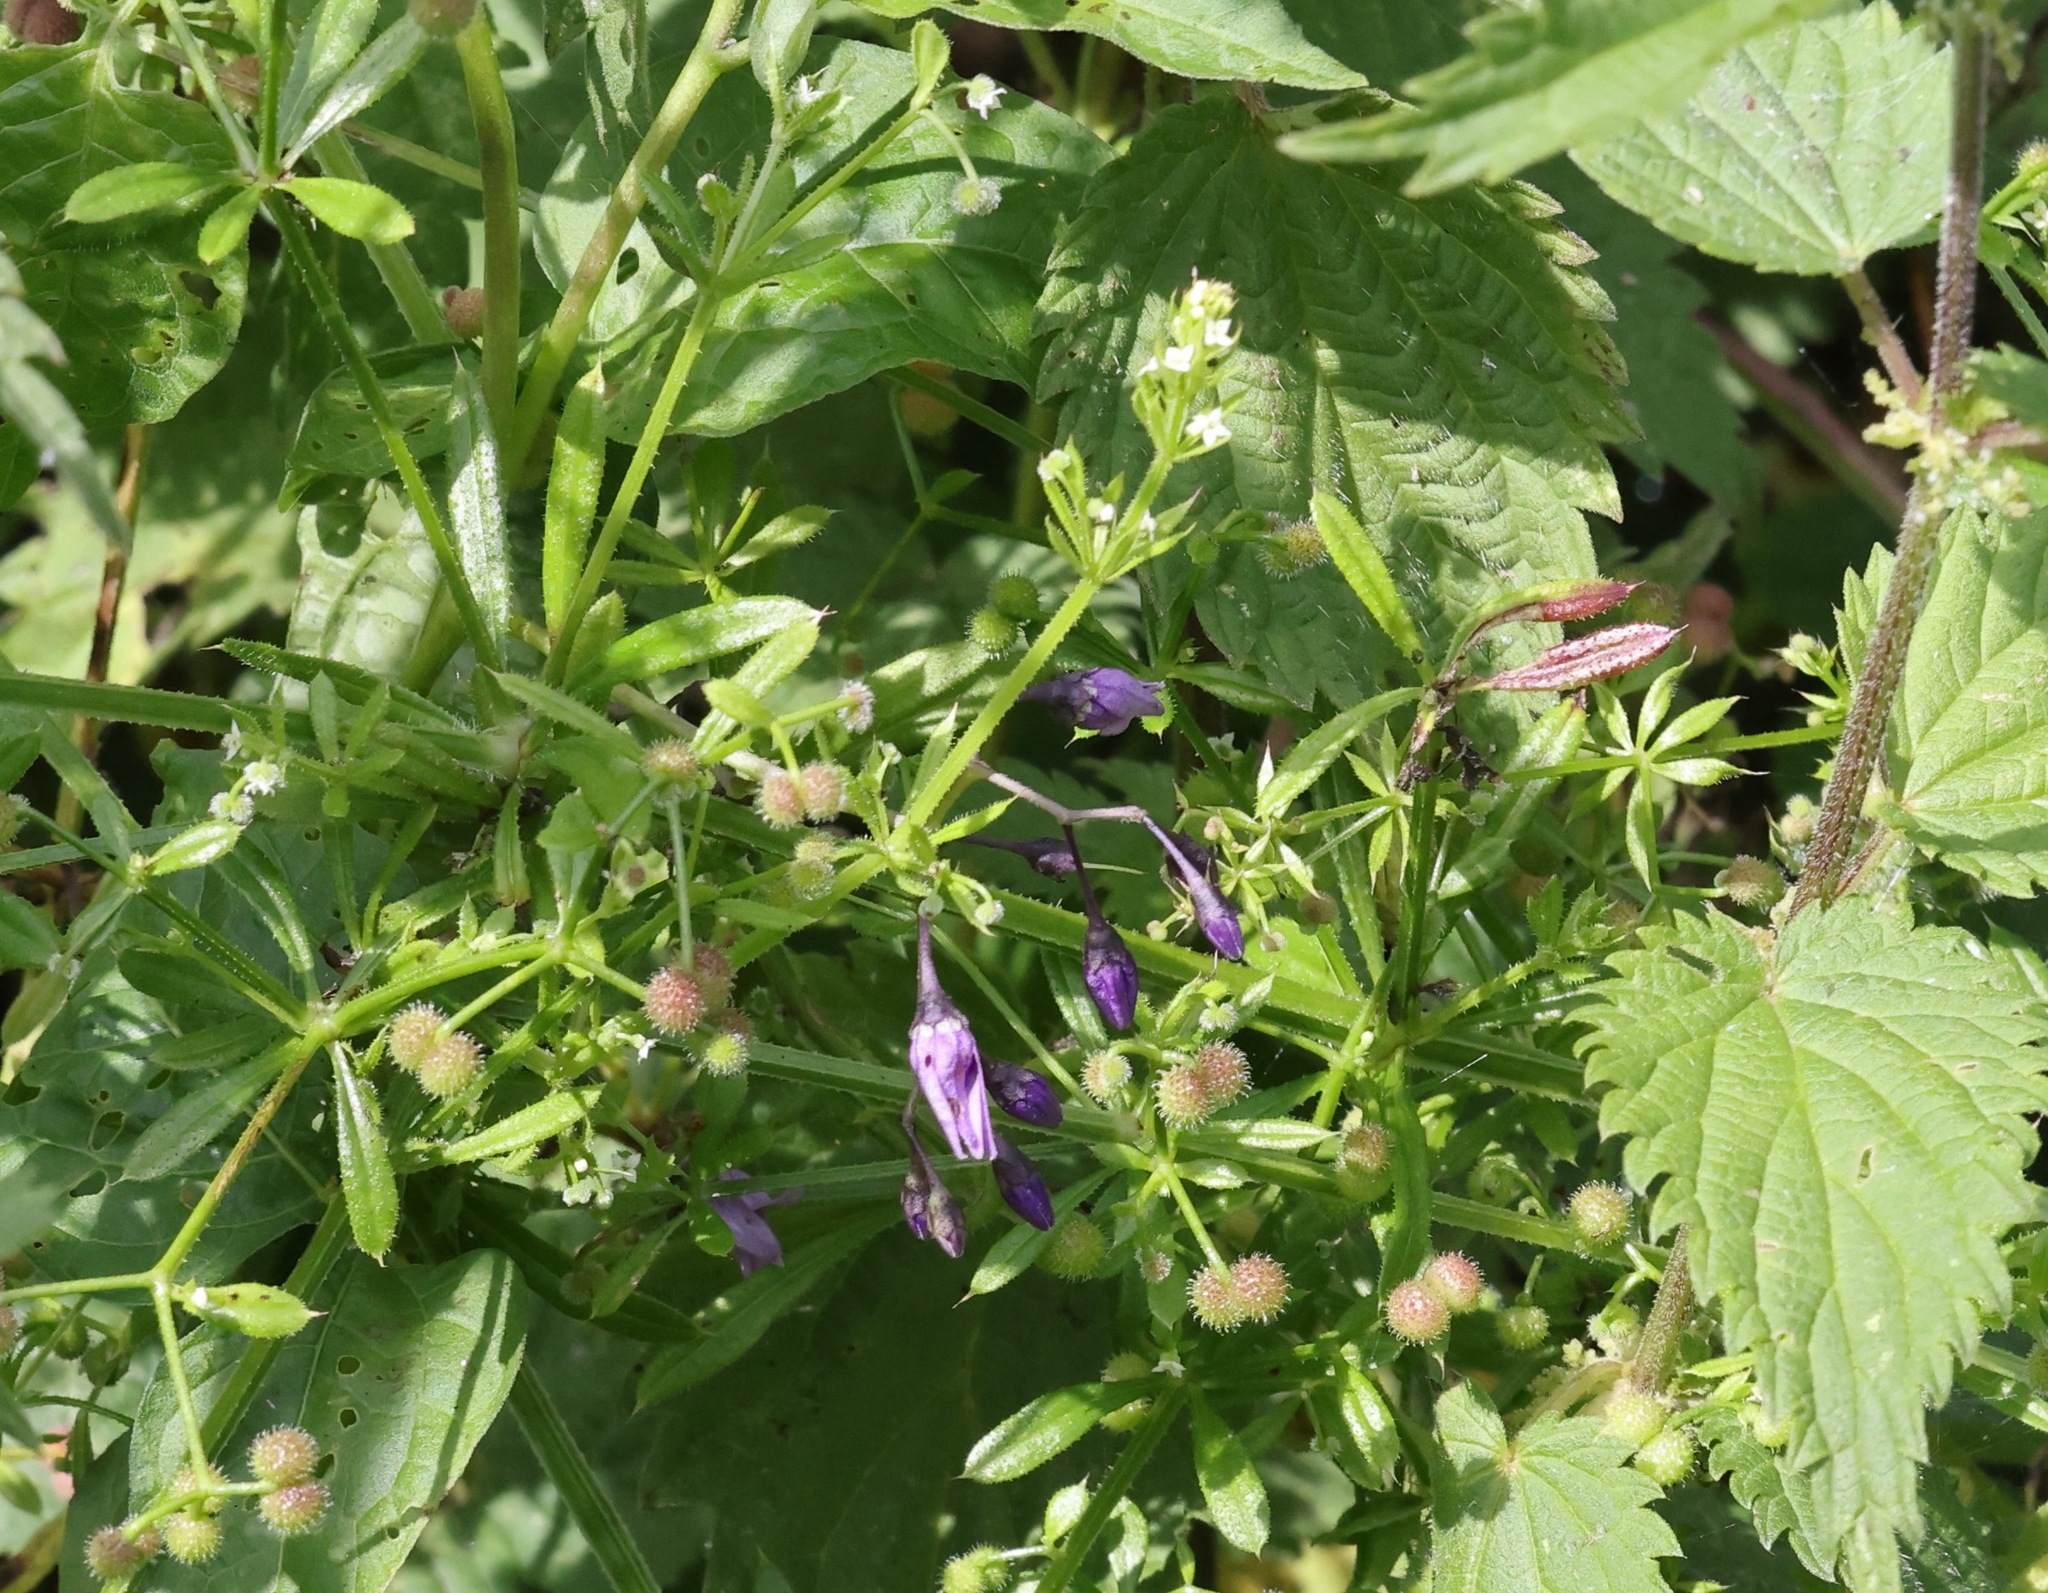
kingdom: Plantae
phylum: Tracheophyta
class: Magnoliopsida
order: Solanales
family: Solanaceae
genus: Solanum
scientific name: Solanum dulcamara
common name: Climbing nightshade
